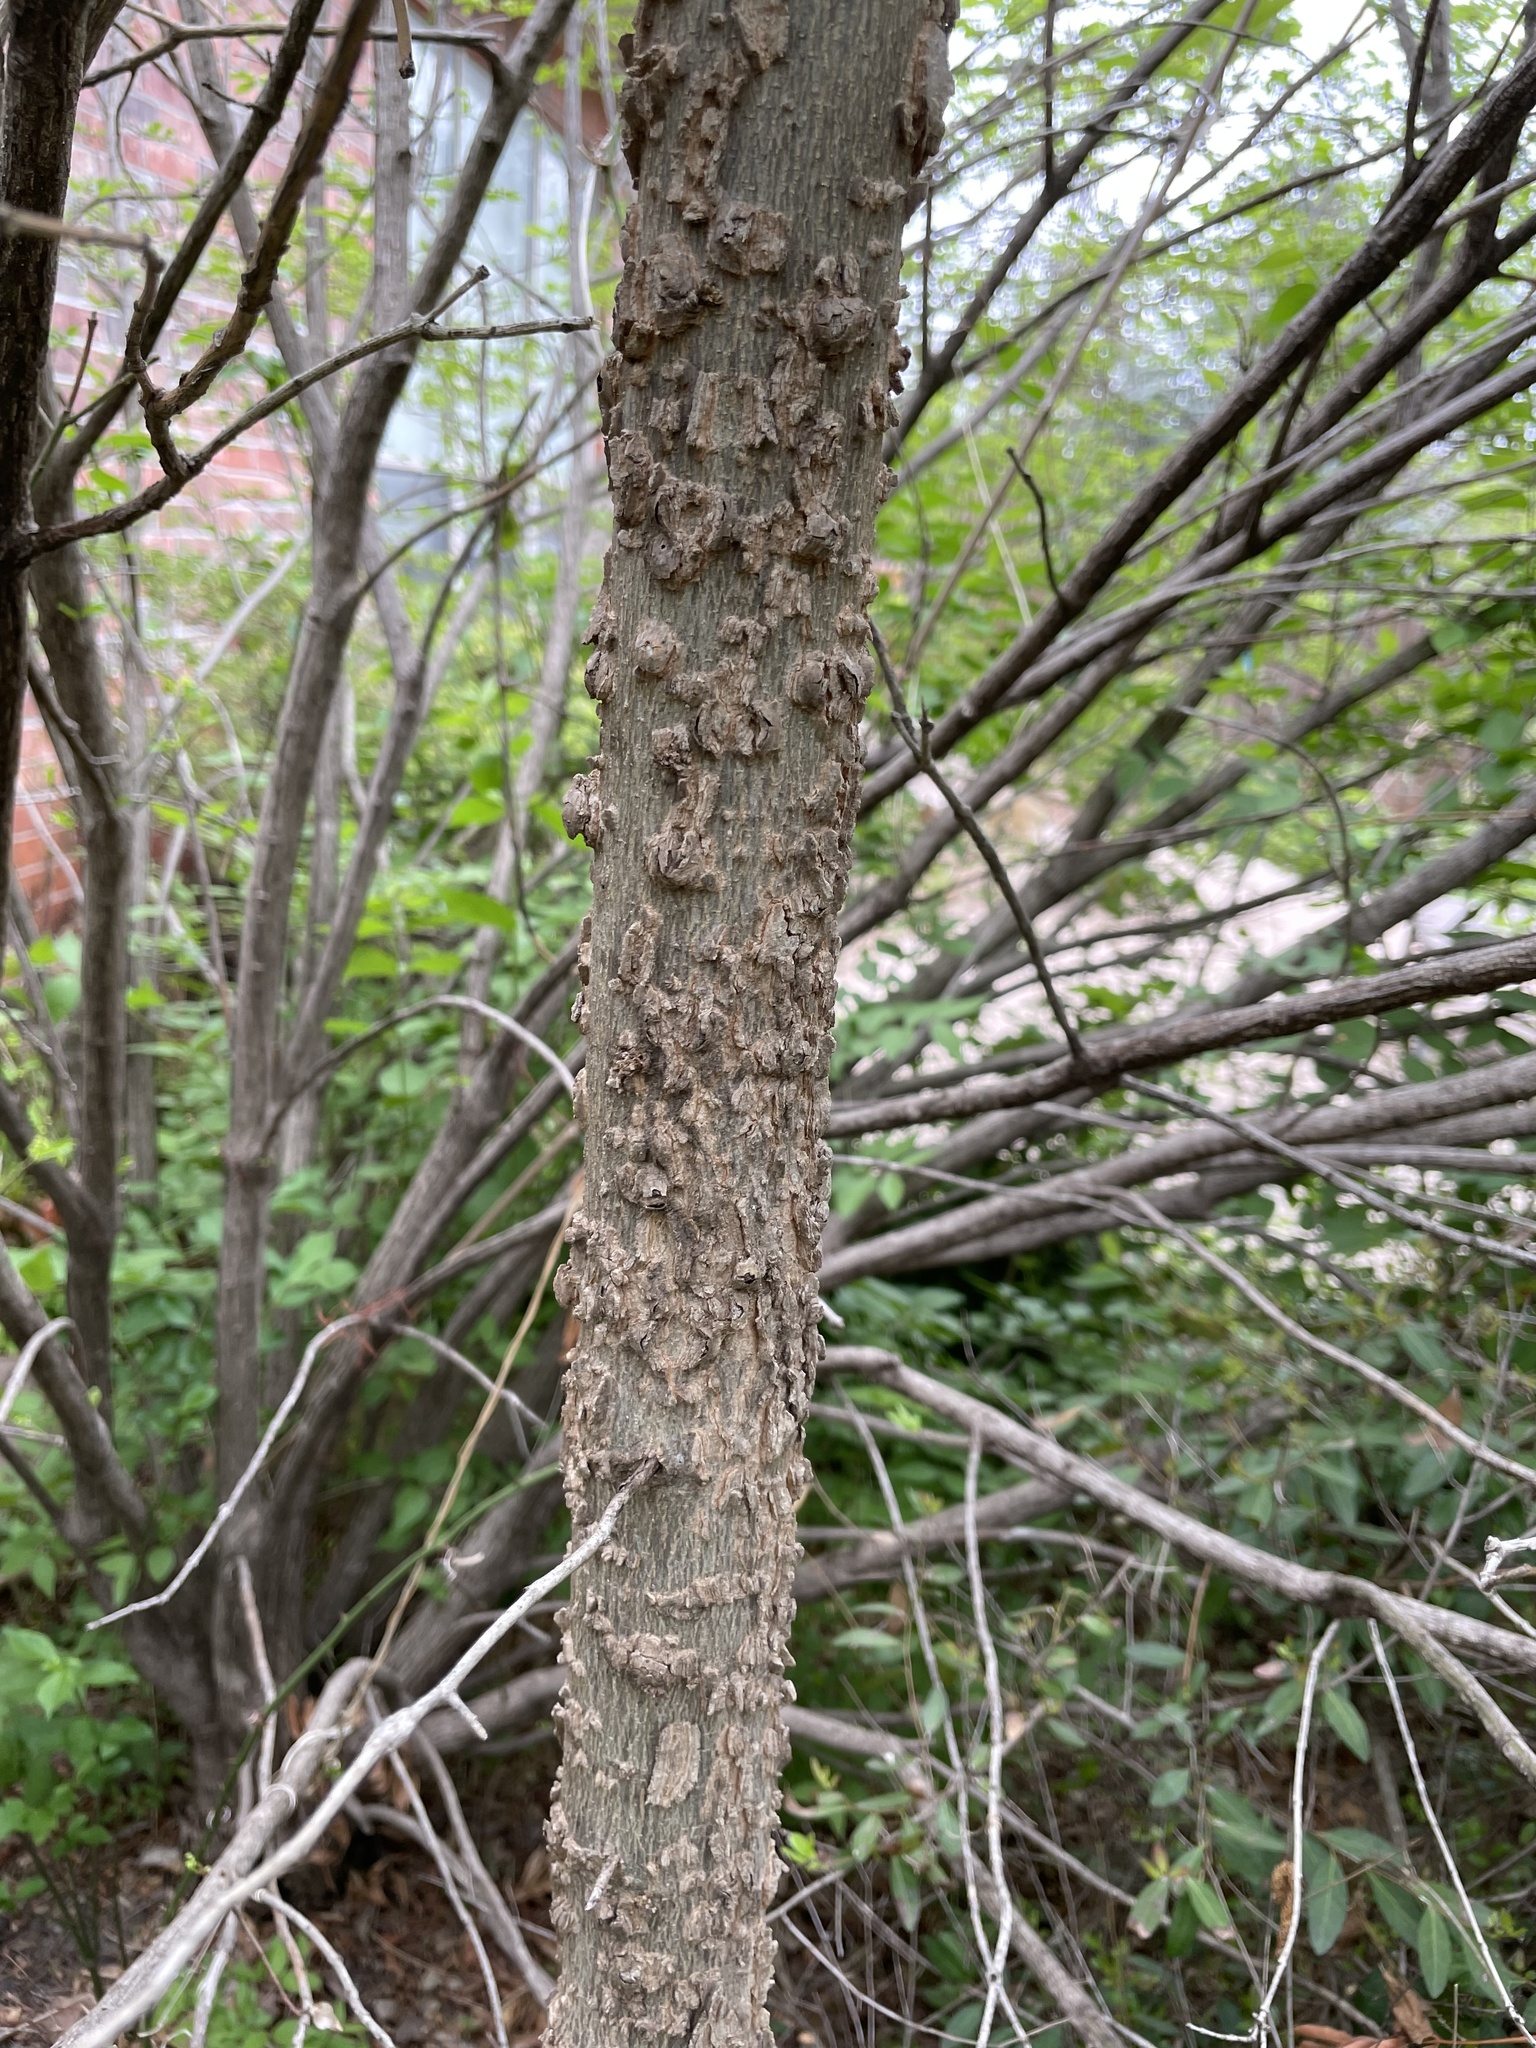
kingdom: Plantae
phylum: Tracheophyta
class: Magnoliopsida
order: Rosales
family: Cannabaceae
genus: Celtis
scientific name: Celtis laevigata
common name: Sugarberry
